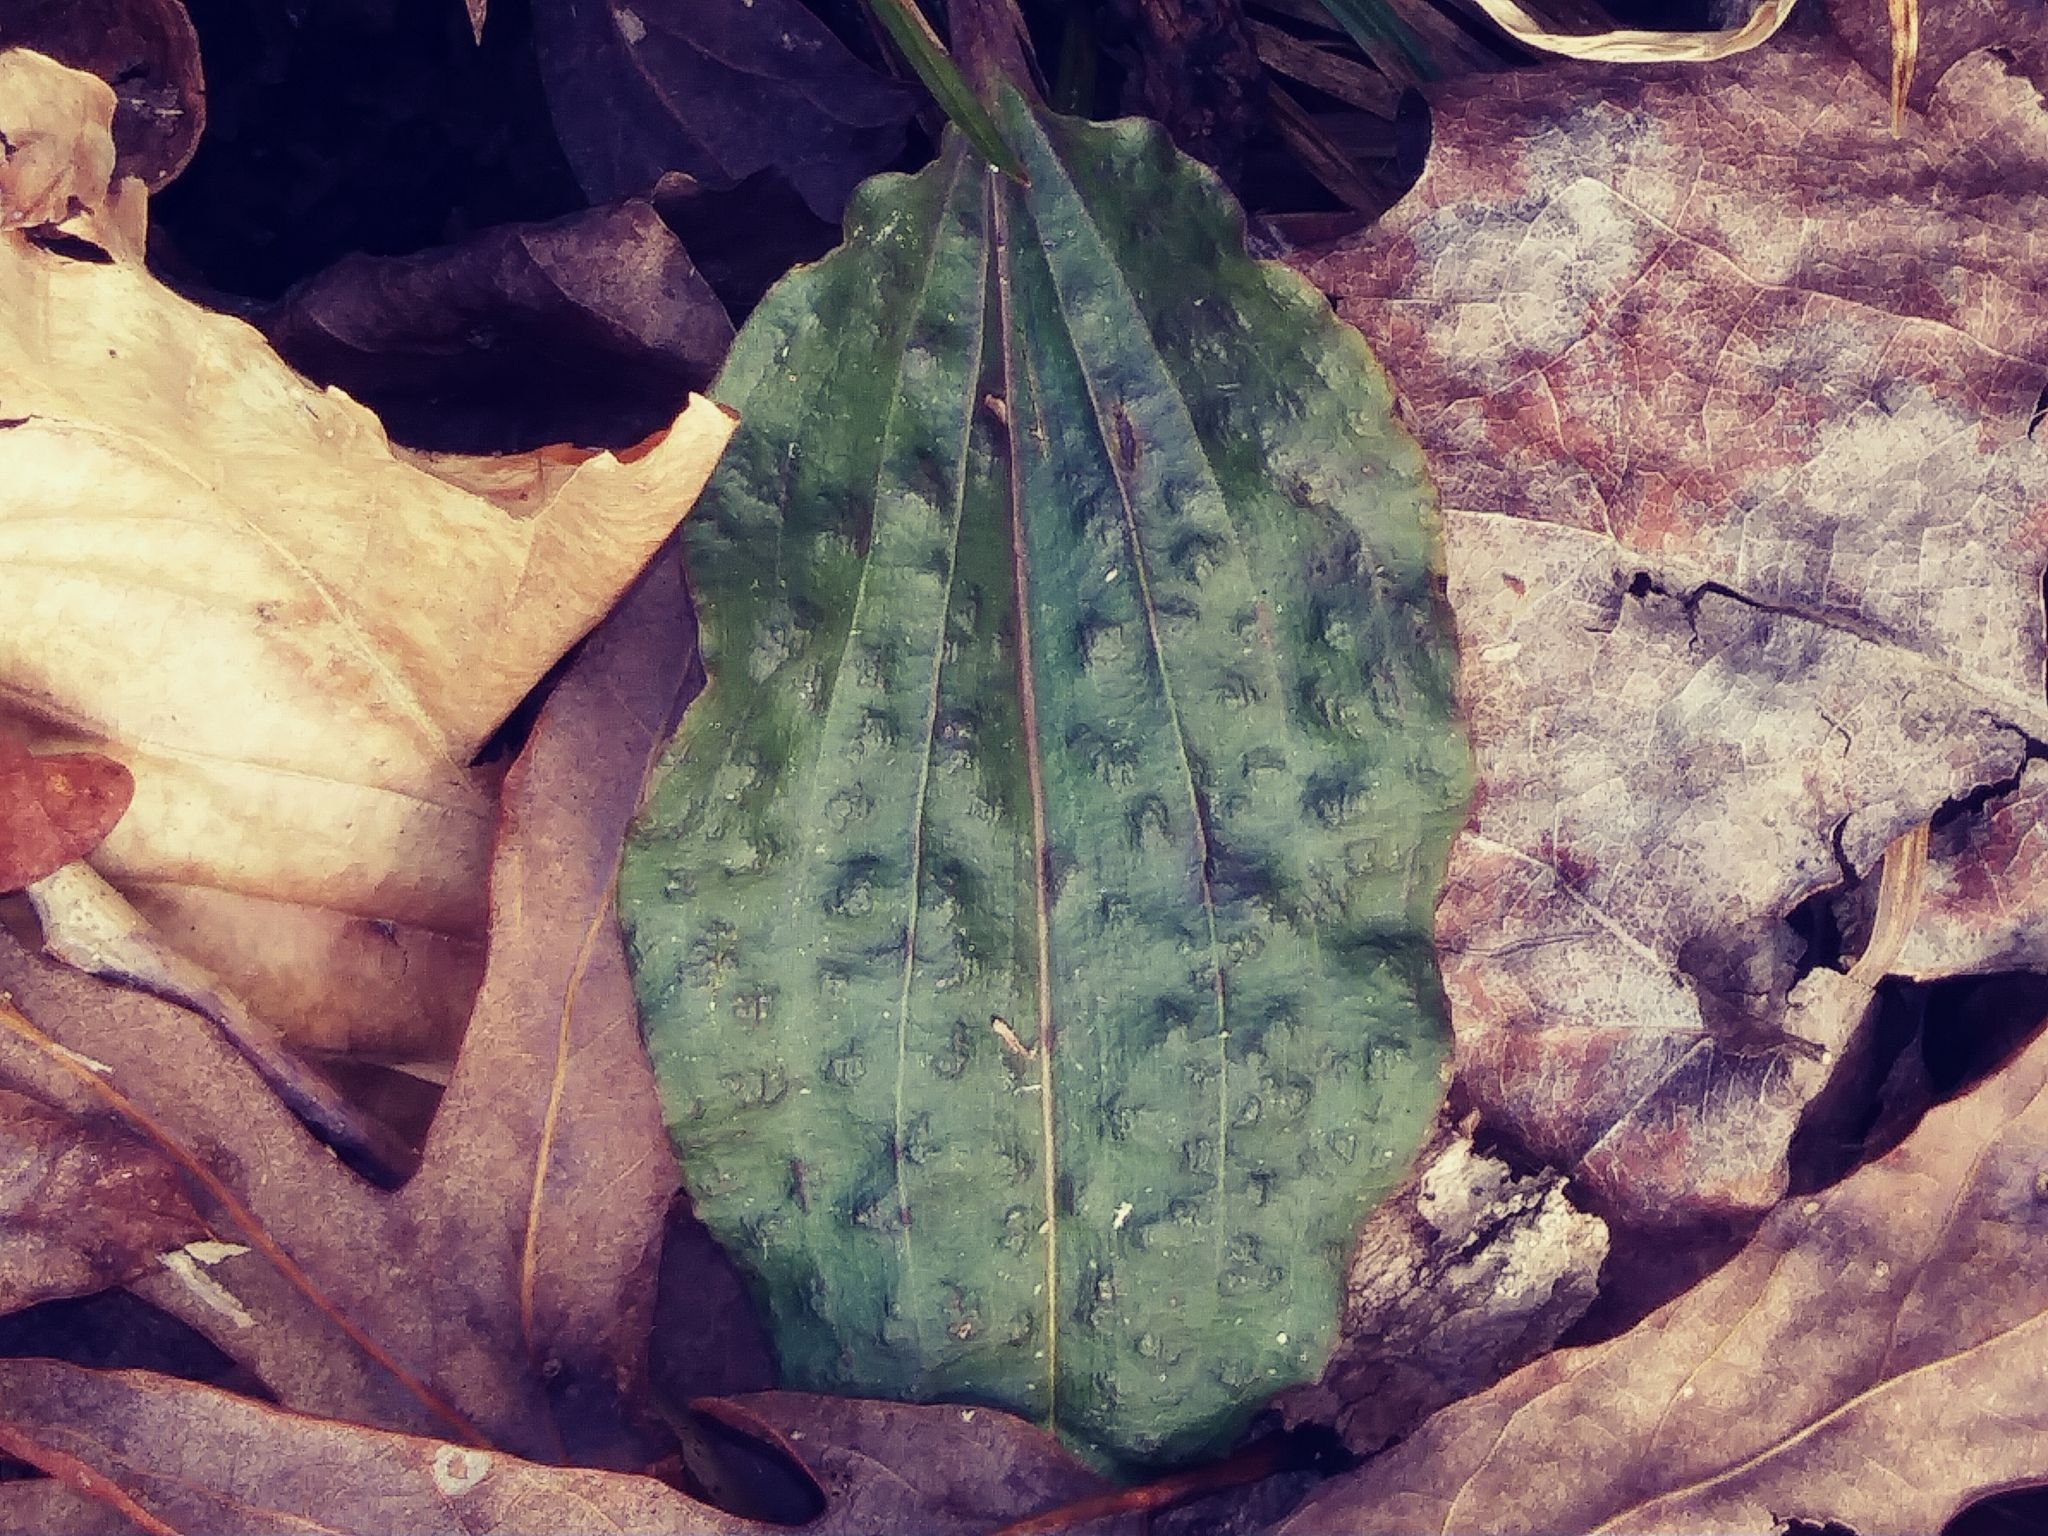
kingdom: Plantae
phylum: Tracheophyta
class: Liliopsida
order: Asparagales
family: Orchidaceae
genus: Tipularia
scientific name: Tipularia discolor
